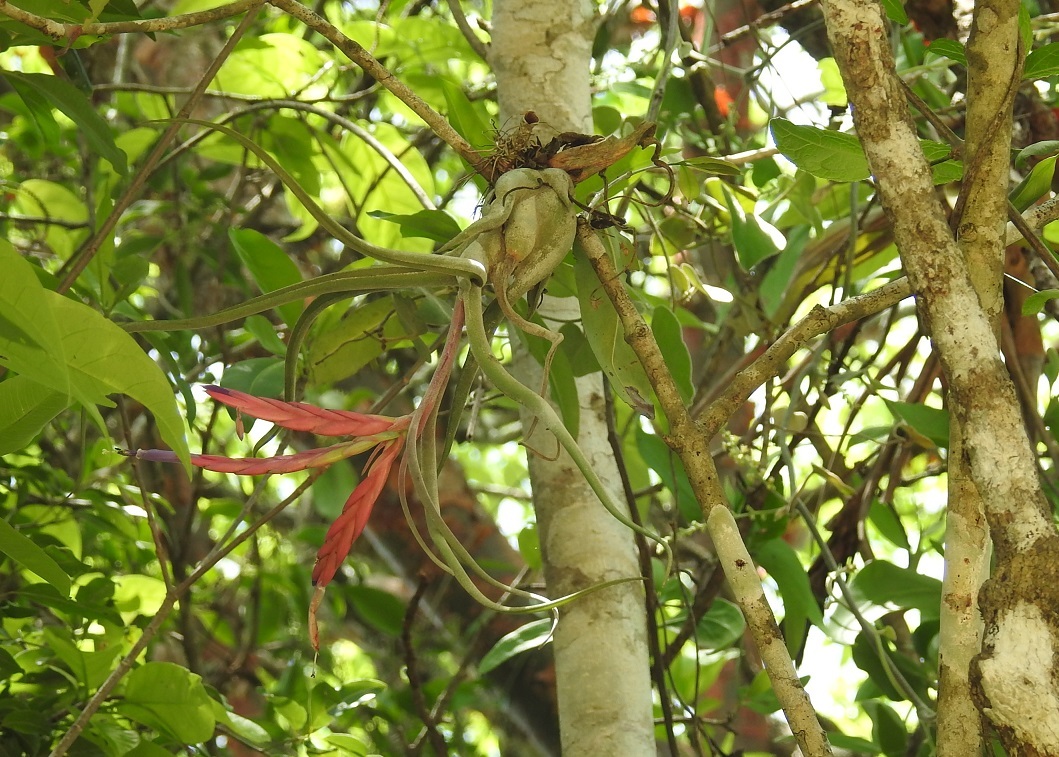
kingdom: Plantae
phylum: Tracheophyta
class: Liliopsida
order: Poales
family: Bromeliaceae
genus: Tillandsia
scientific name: Tillandsia caput-medusae
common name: Octopus plant
